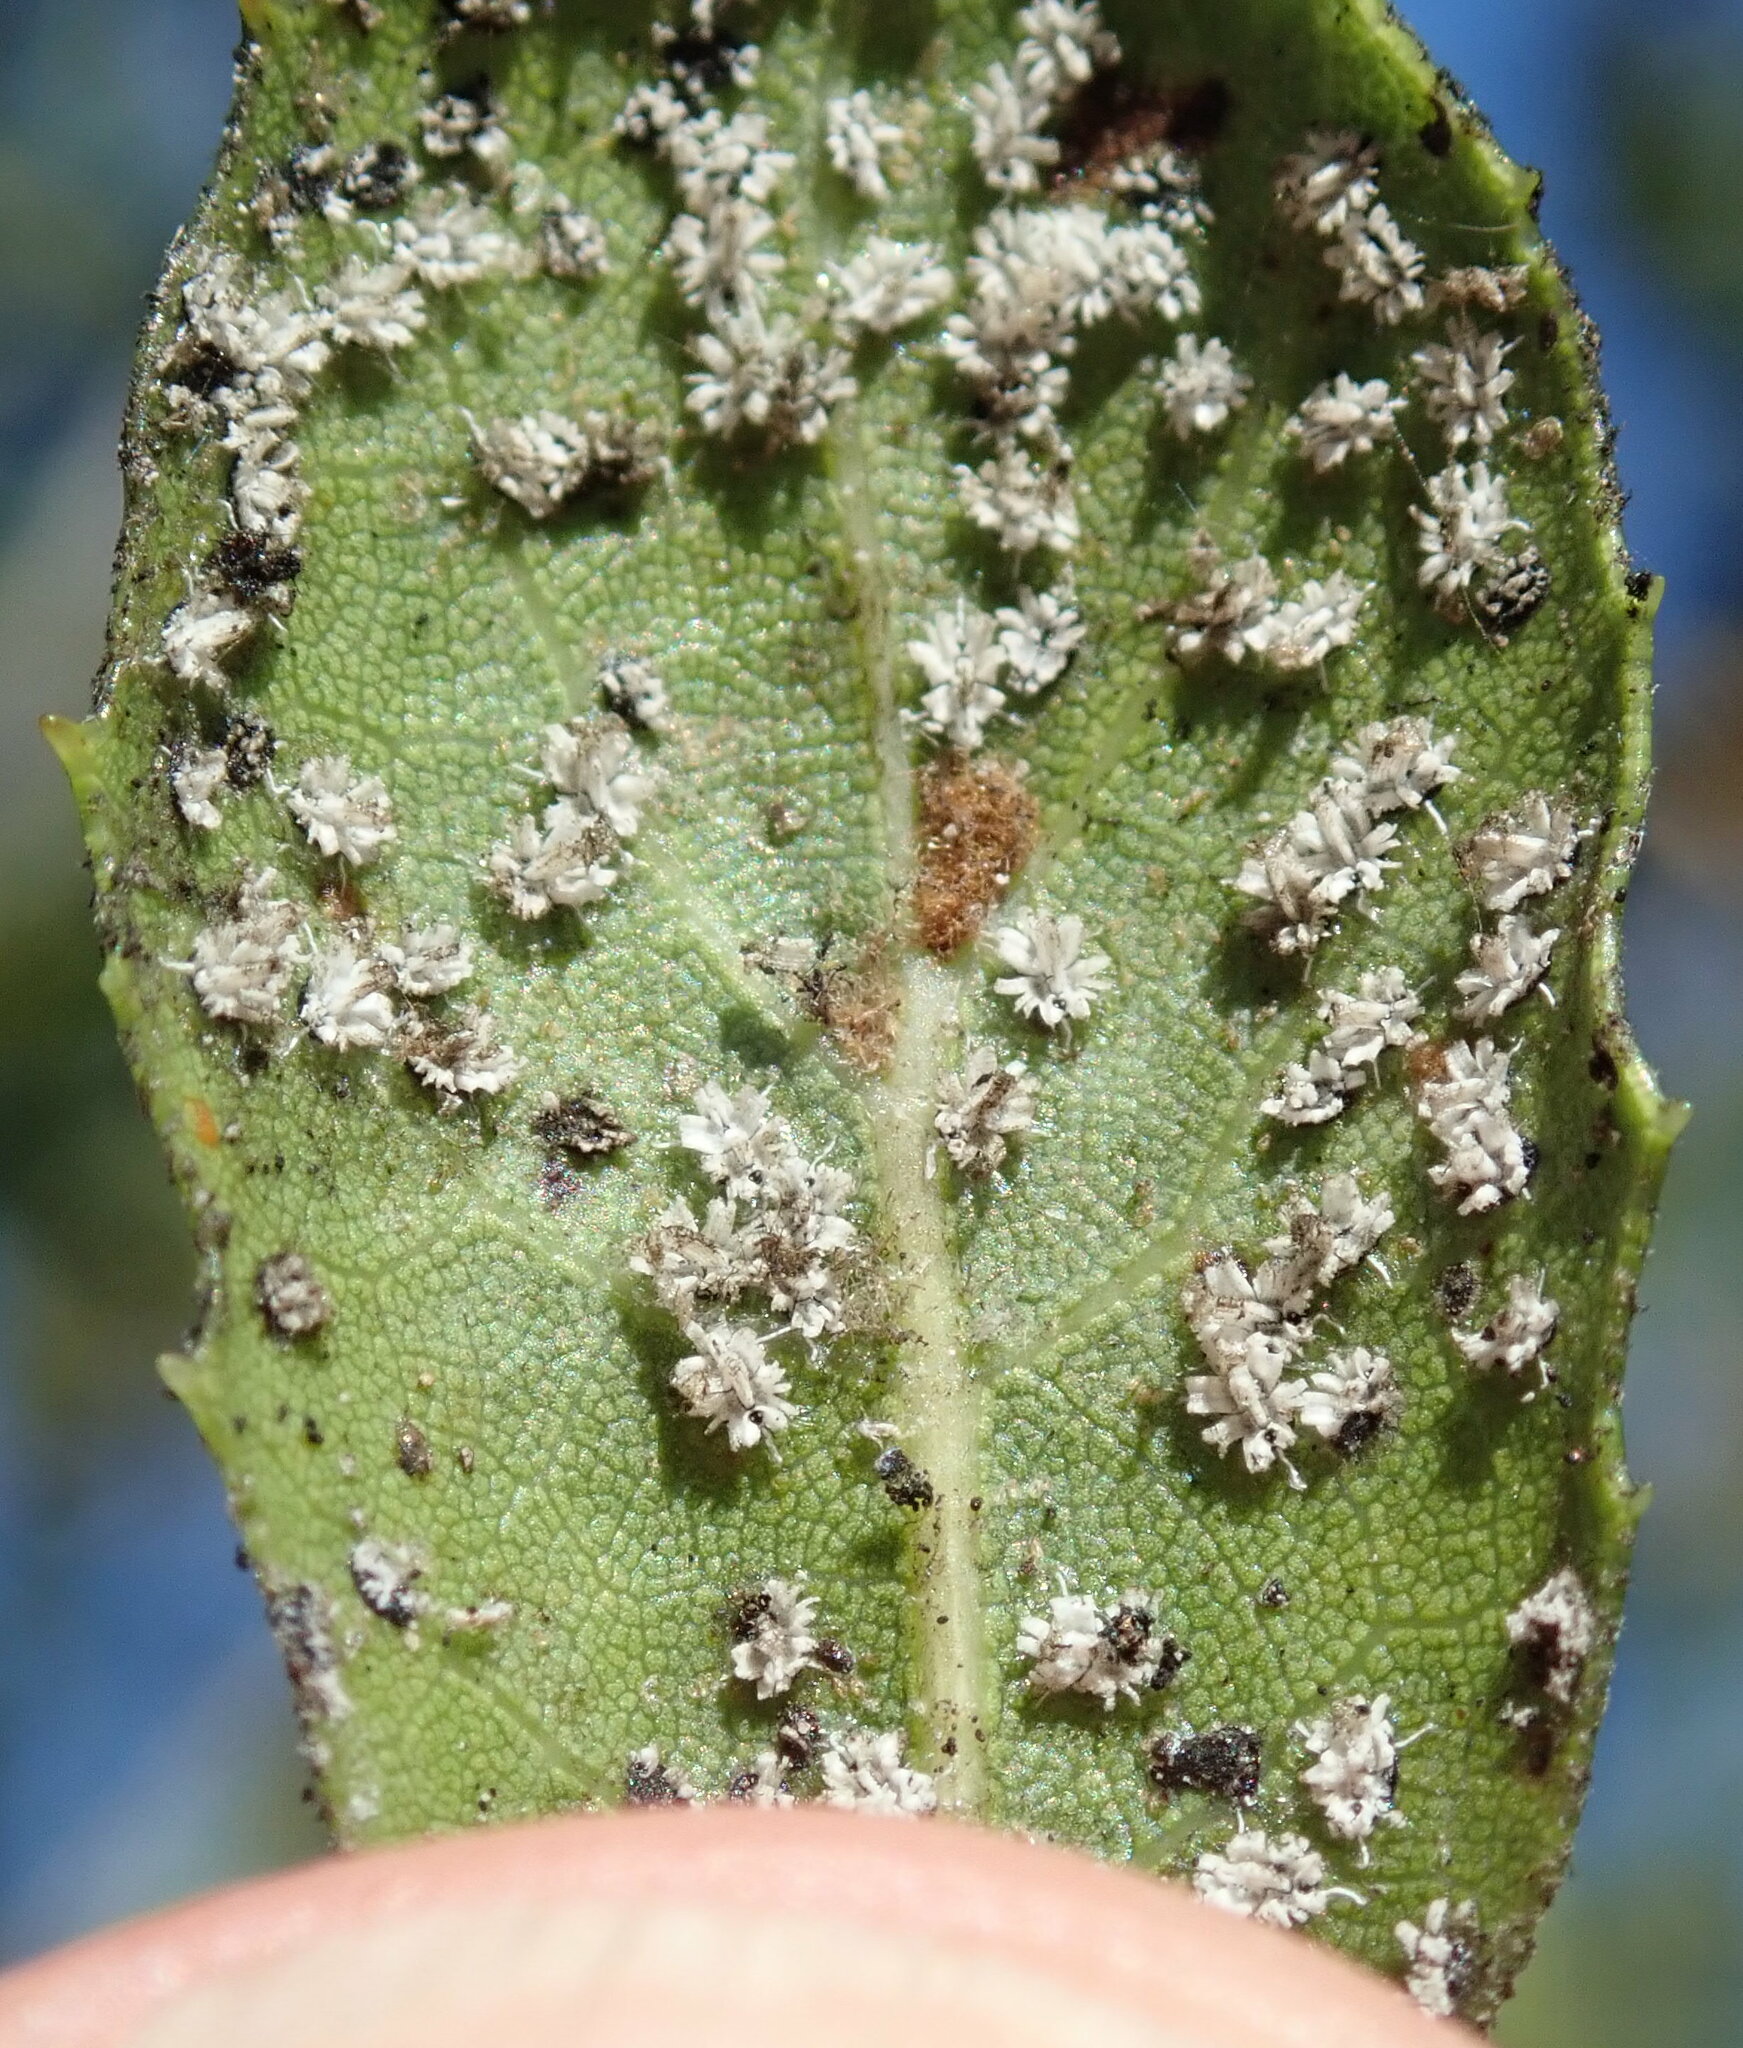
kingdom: Animalia
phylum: Arthropoda
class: Insecta
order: Hemiptera
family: Aleyrodidae
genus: Aleuroplatus
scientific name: Aleuroplatus coronata
